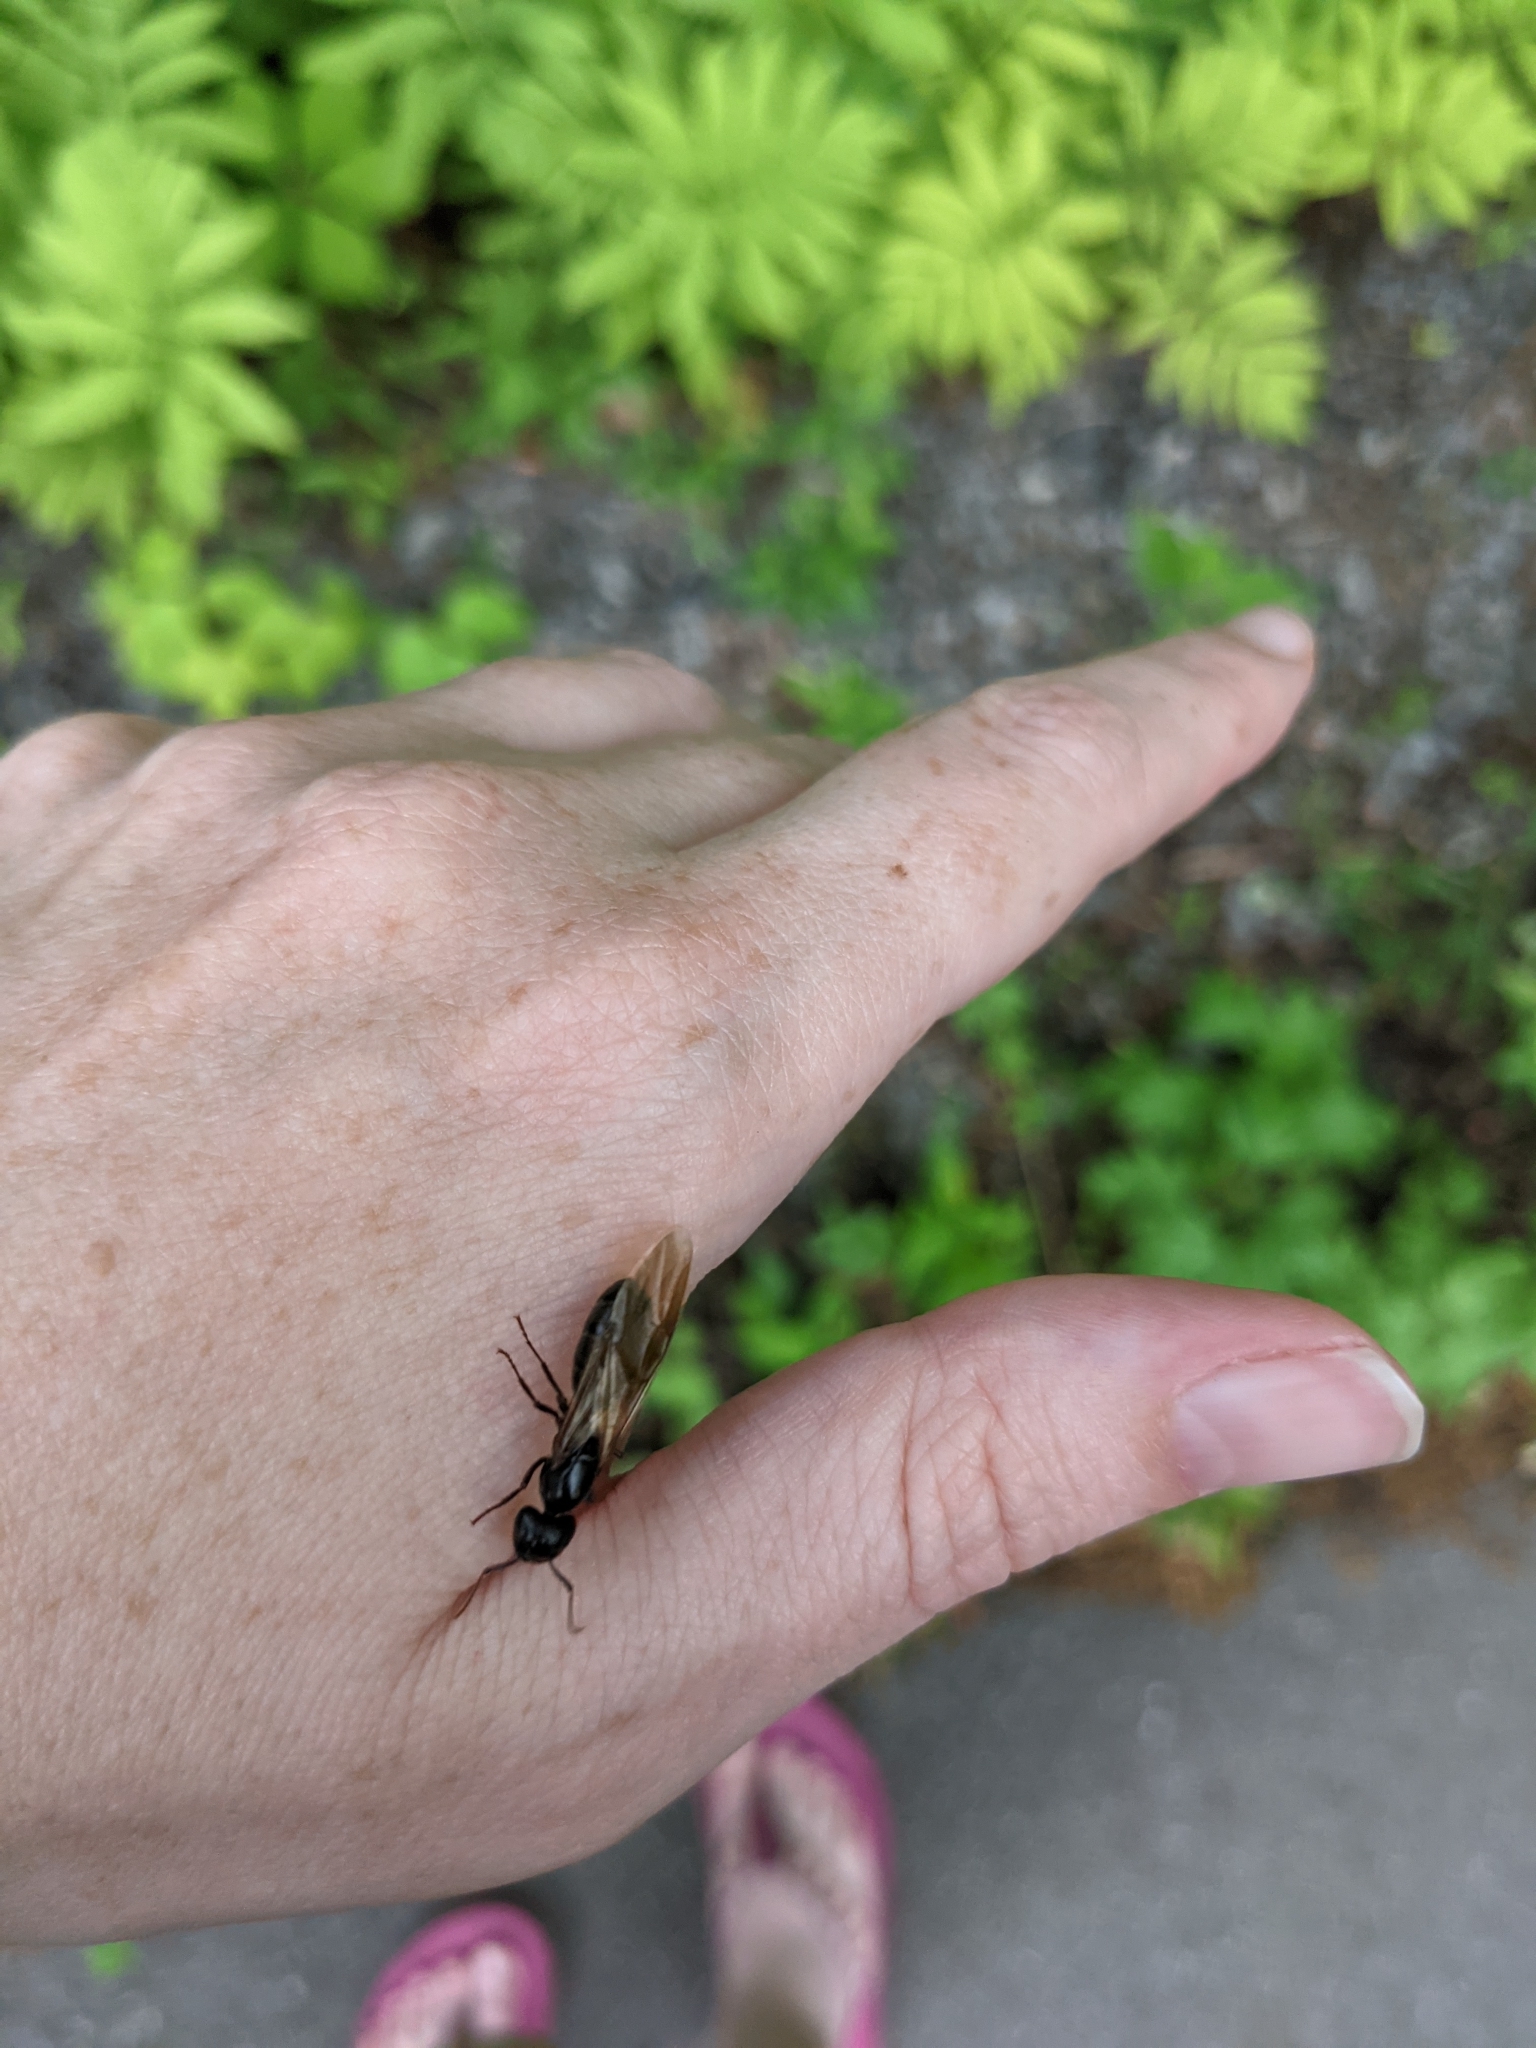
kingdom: Animalia
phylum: Arthropoda
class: Insecta
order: Hymenoptera
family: Formicidae
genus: Camponotus
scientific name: Camponotus pennsylvanicus
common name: Black carpenter ant
